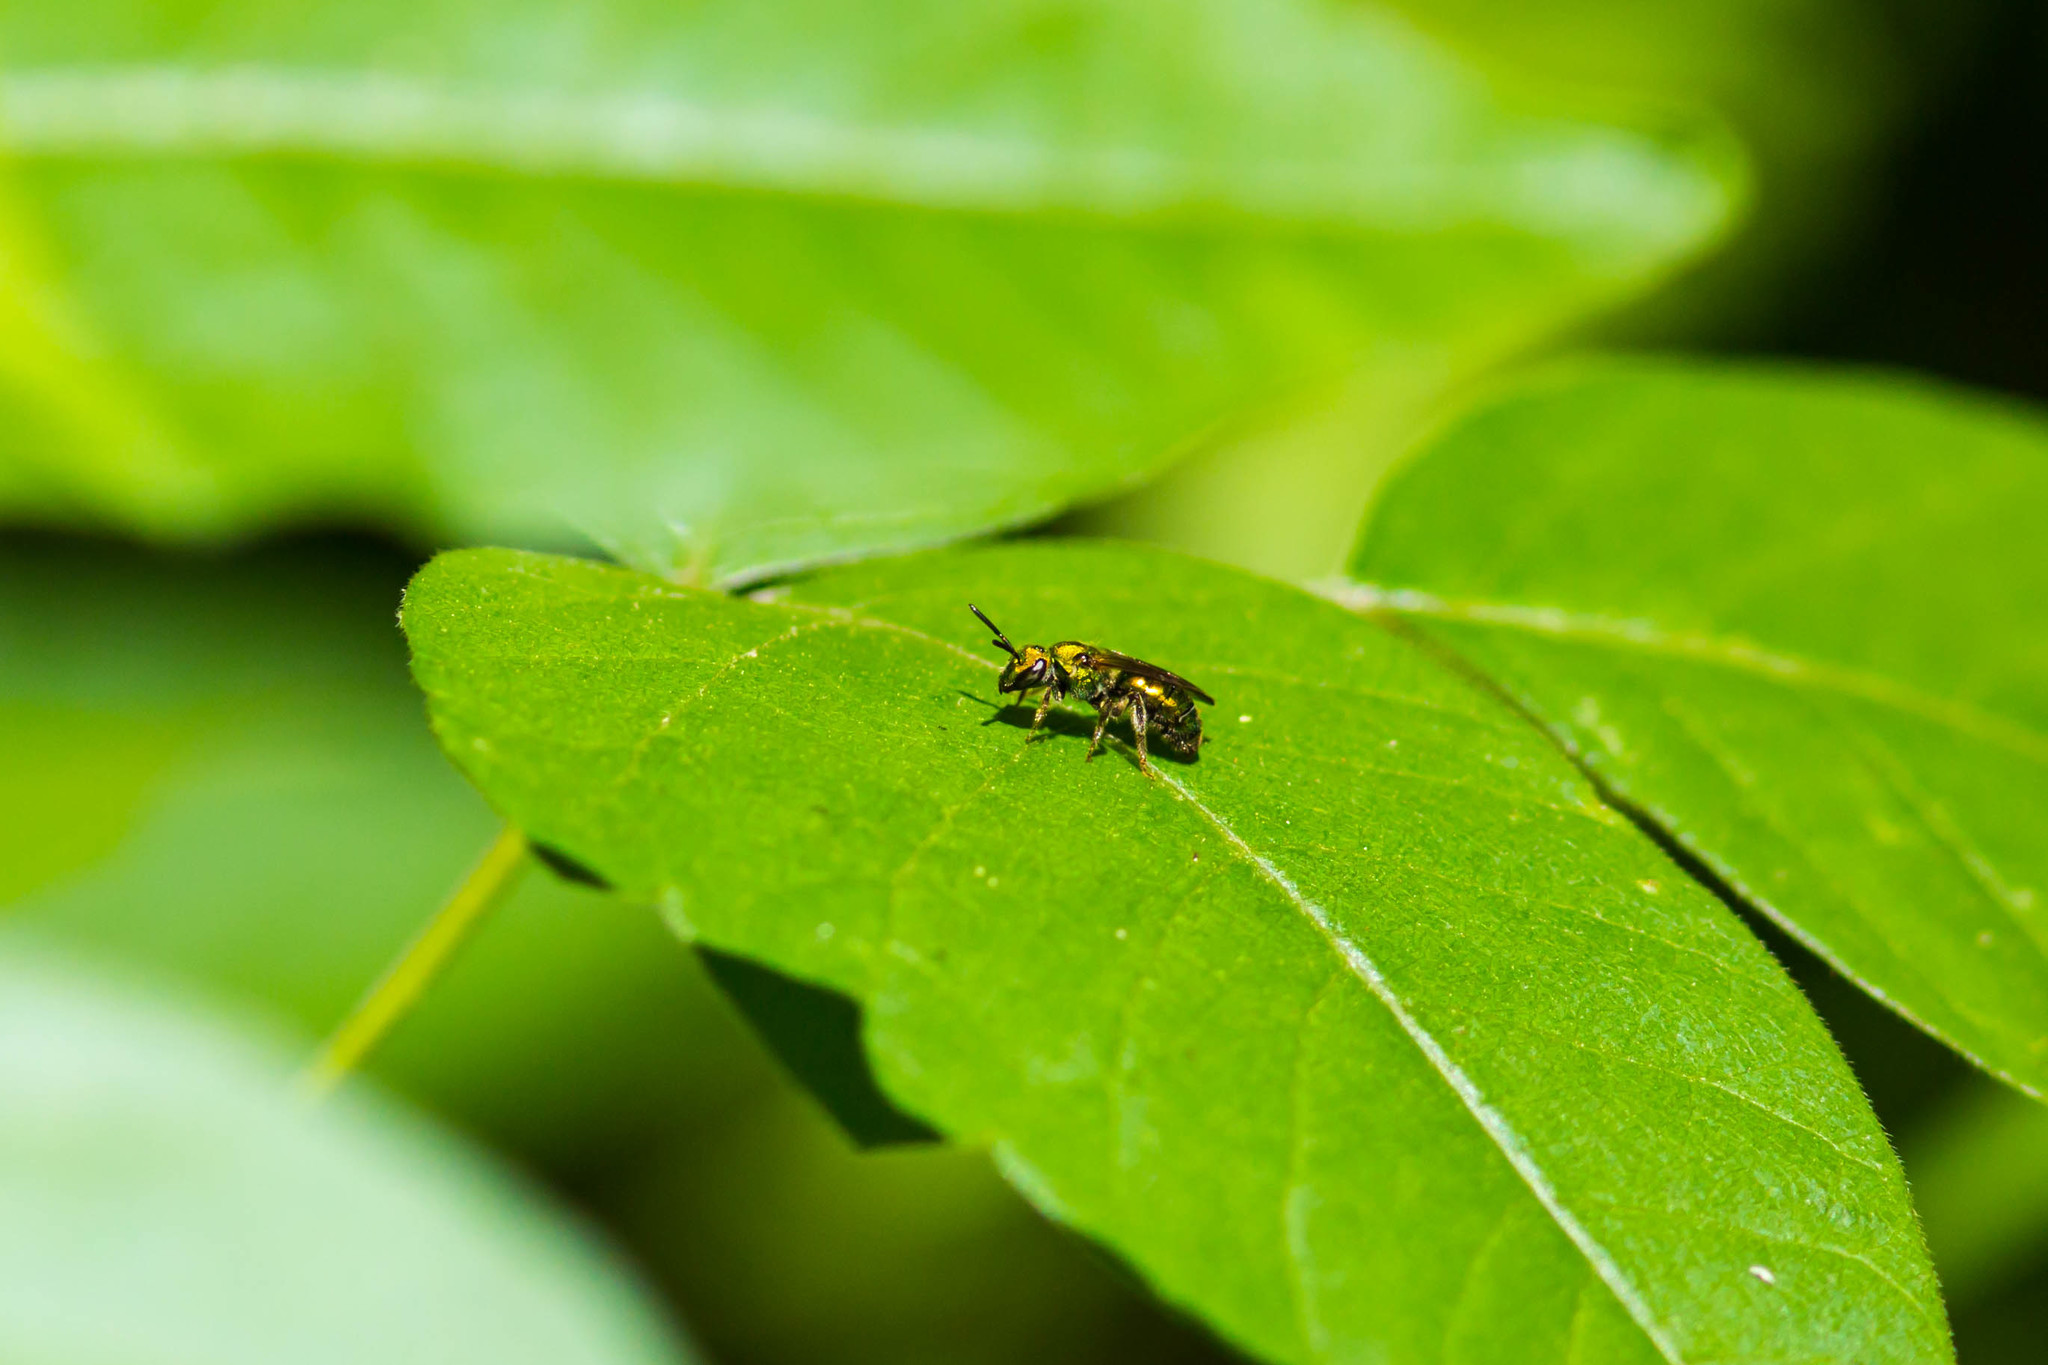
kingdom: Animalia
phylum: Arthropoda
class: Insecta
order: Hymenoptera
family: Halictidae
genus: Augochlora
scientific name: Augochlora pura
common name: Pure green sweat bee
